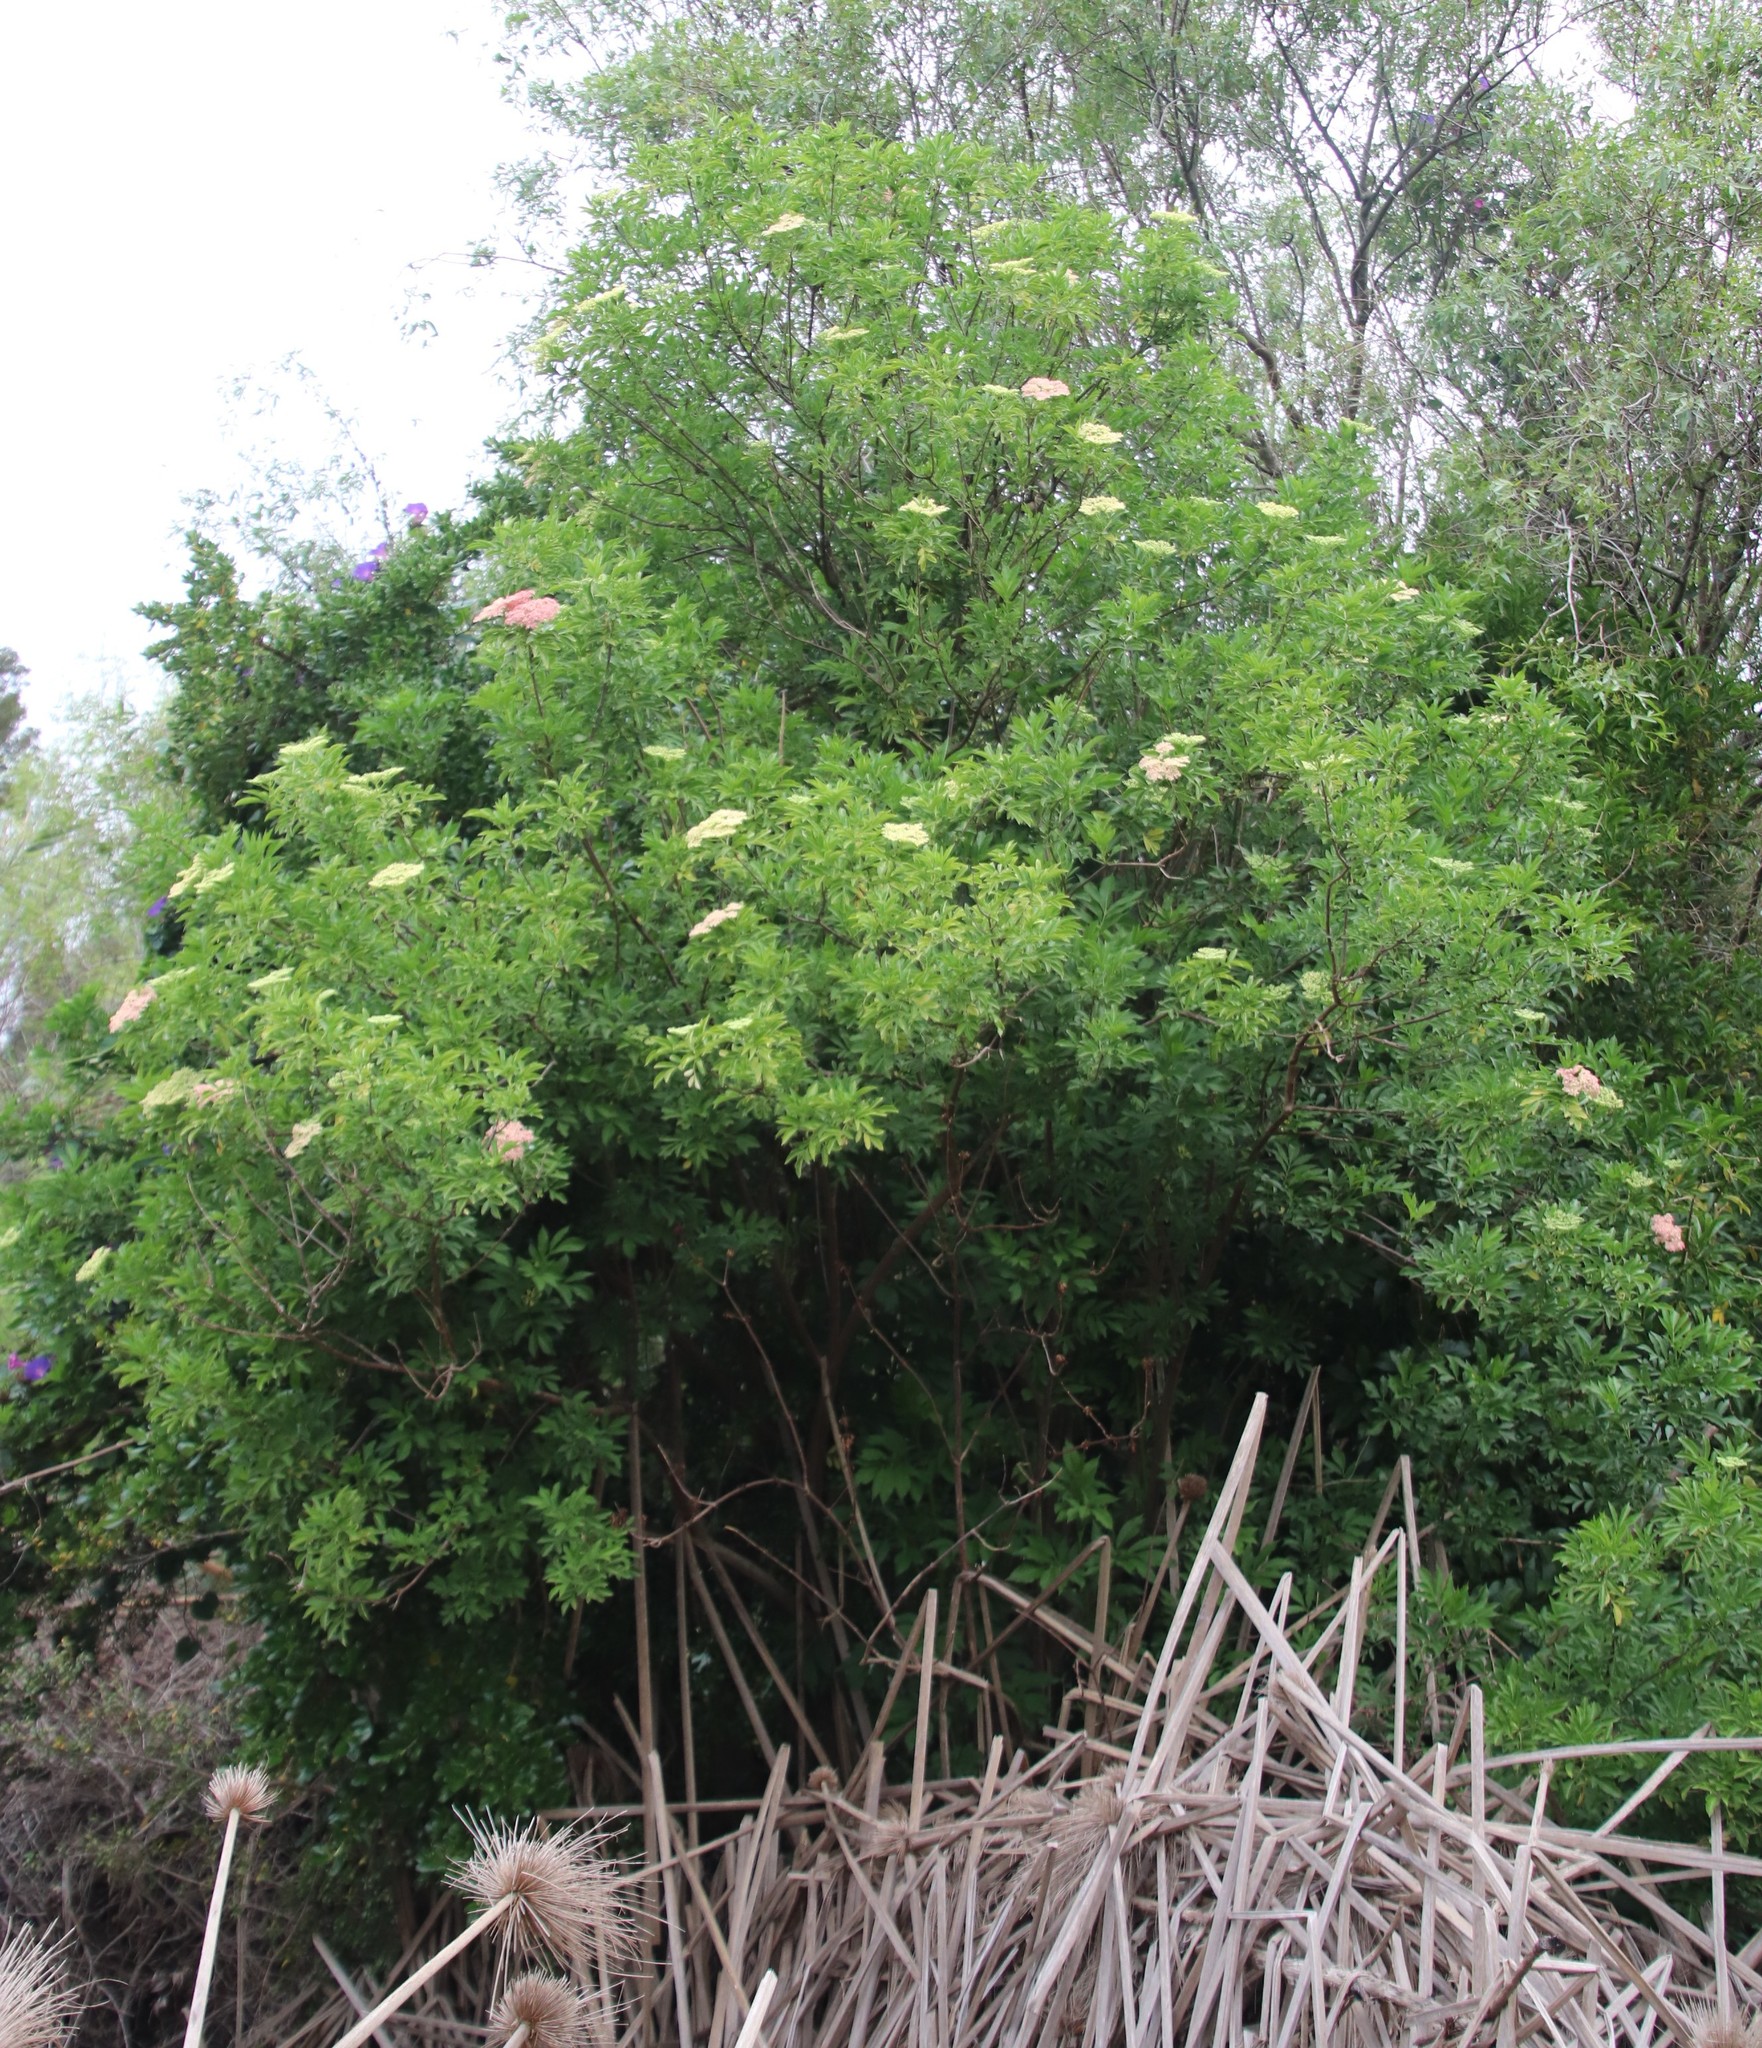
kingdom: Plantae
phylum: Tracheophyta
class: Magnoliopsida
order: Dipsacales
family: Viburnaceae
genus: Sambucus
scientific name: Sambucus nigra
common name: Elder
